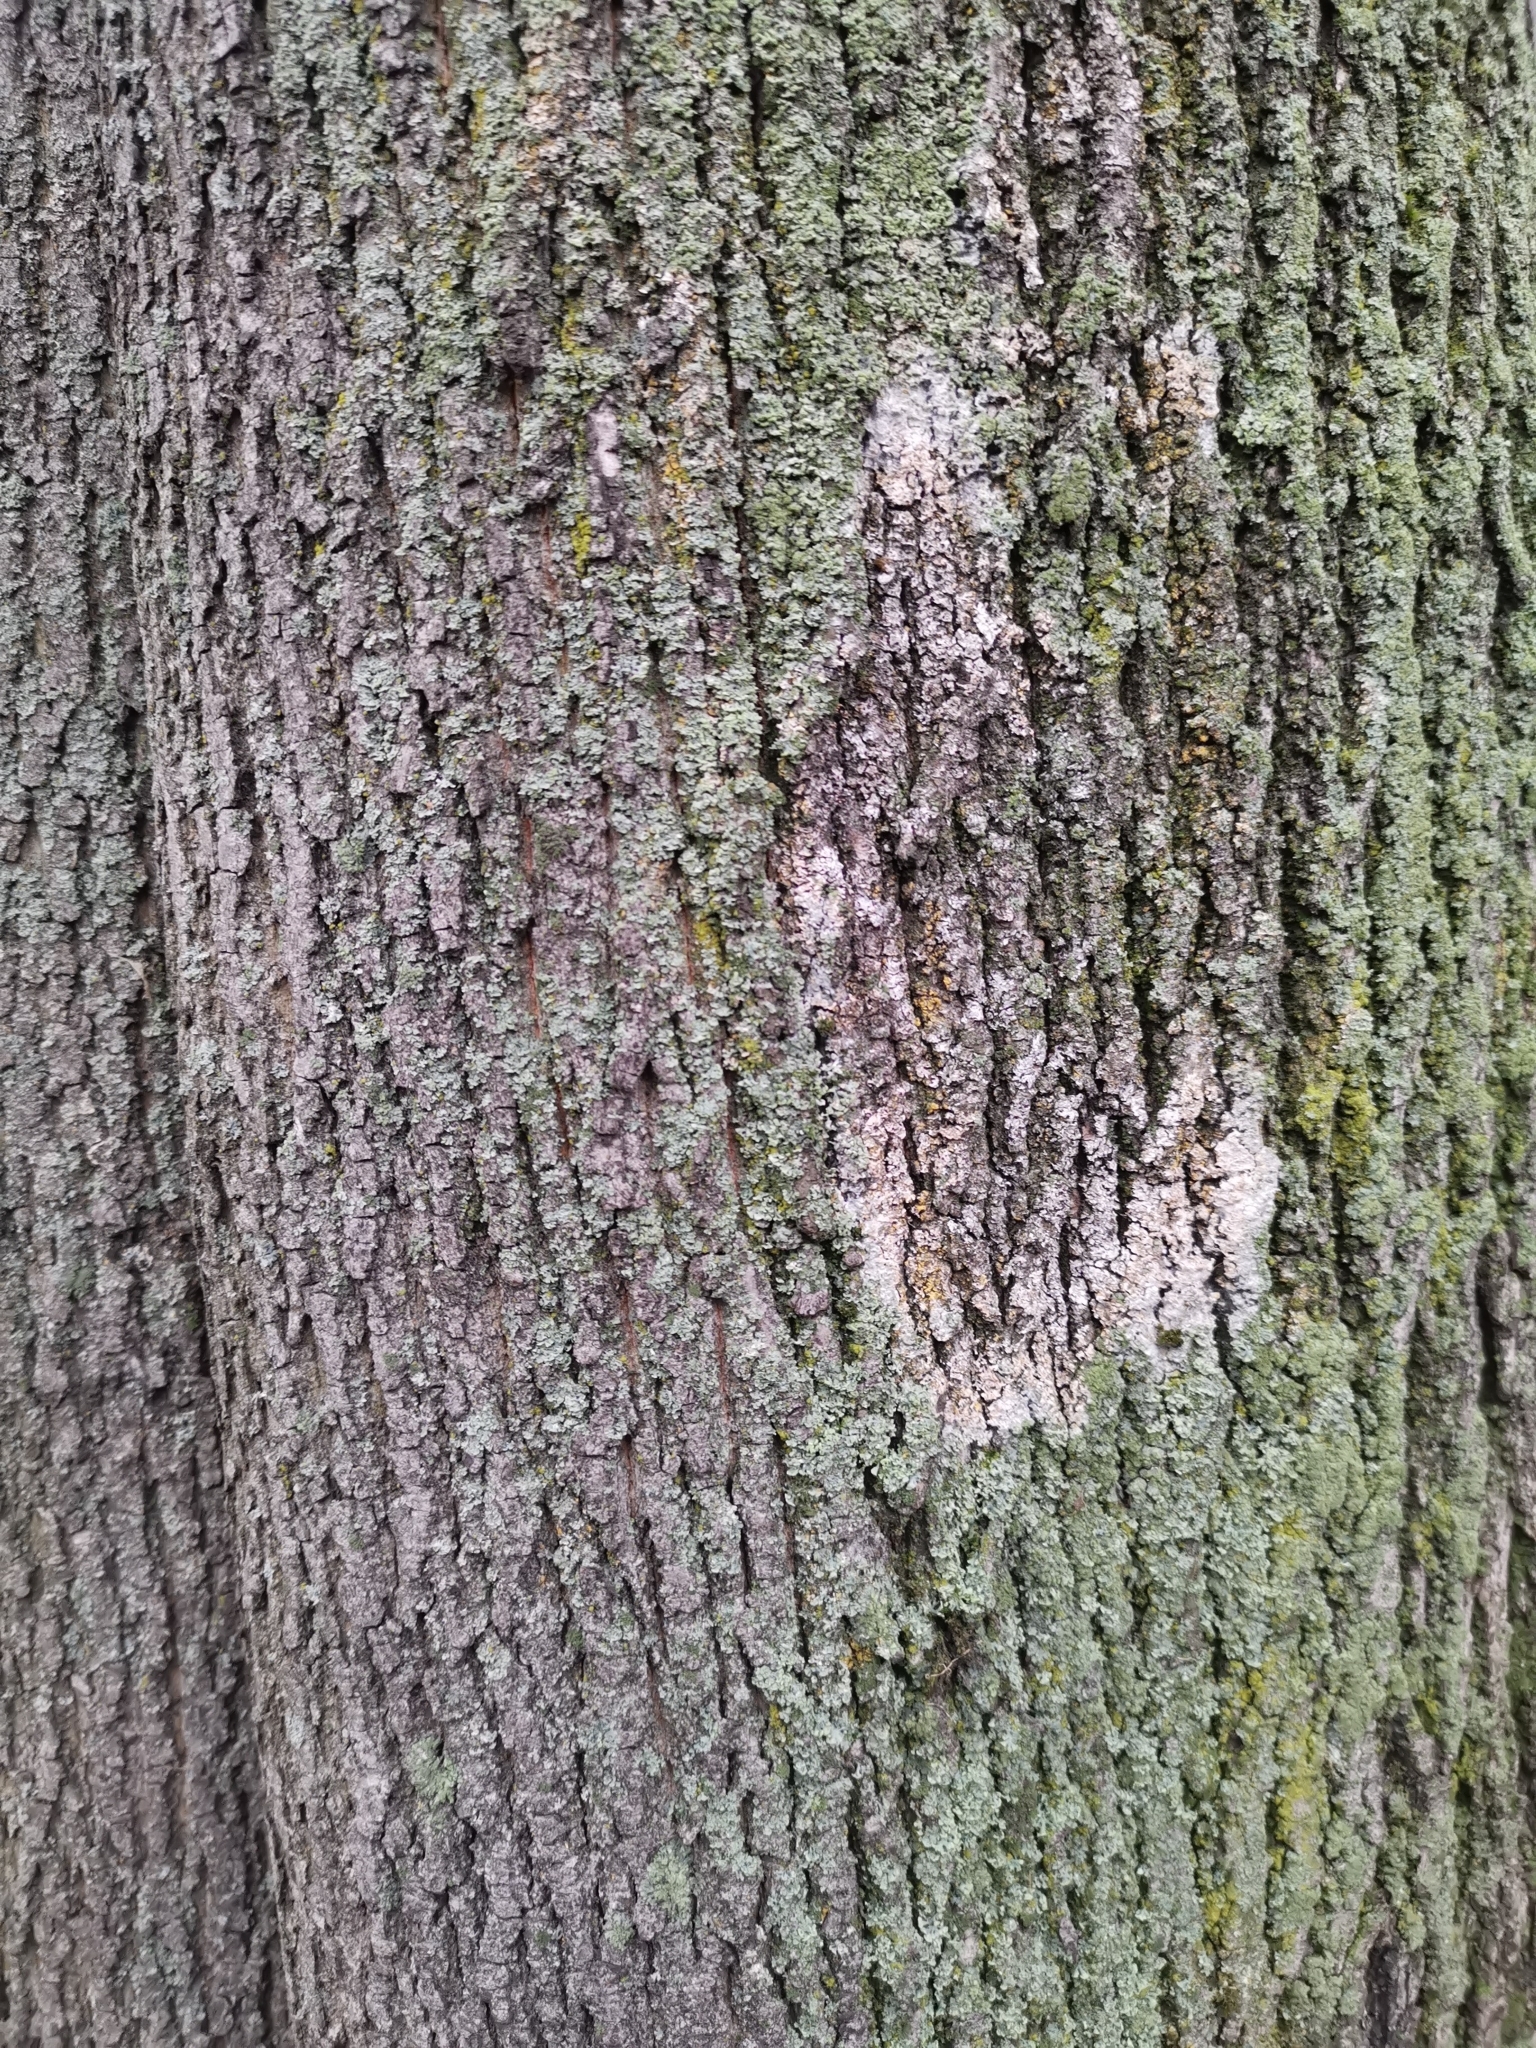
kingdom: Fungi
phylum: Basidiomycota
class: Agaricomycetes
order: Atheliales
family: Atheliaceae
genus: Athelia
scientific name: Athelia arachnoidea
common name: Candelabra duster
